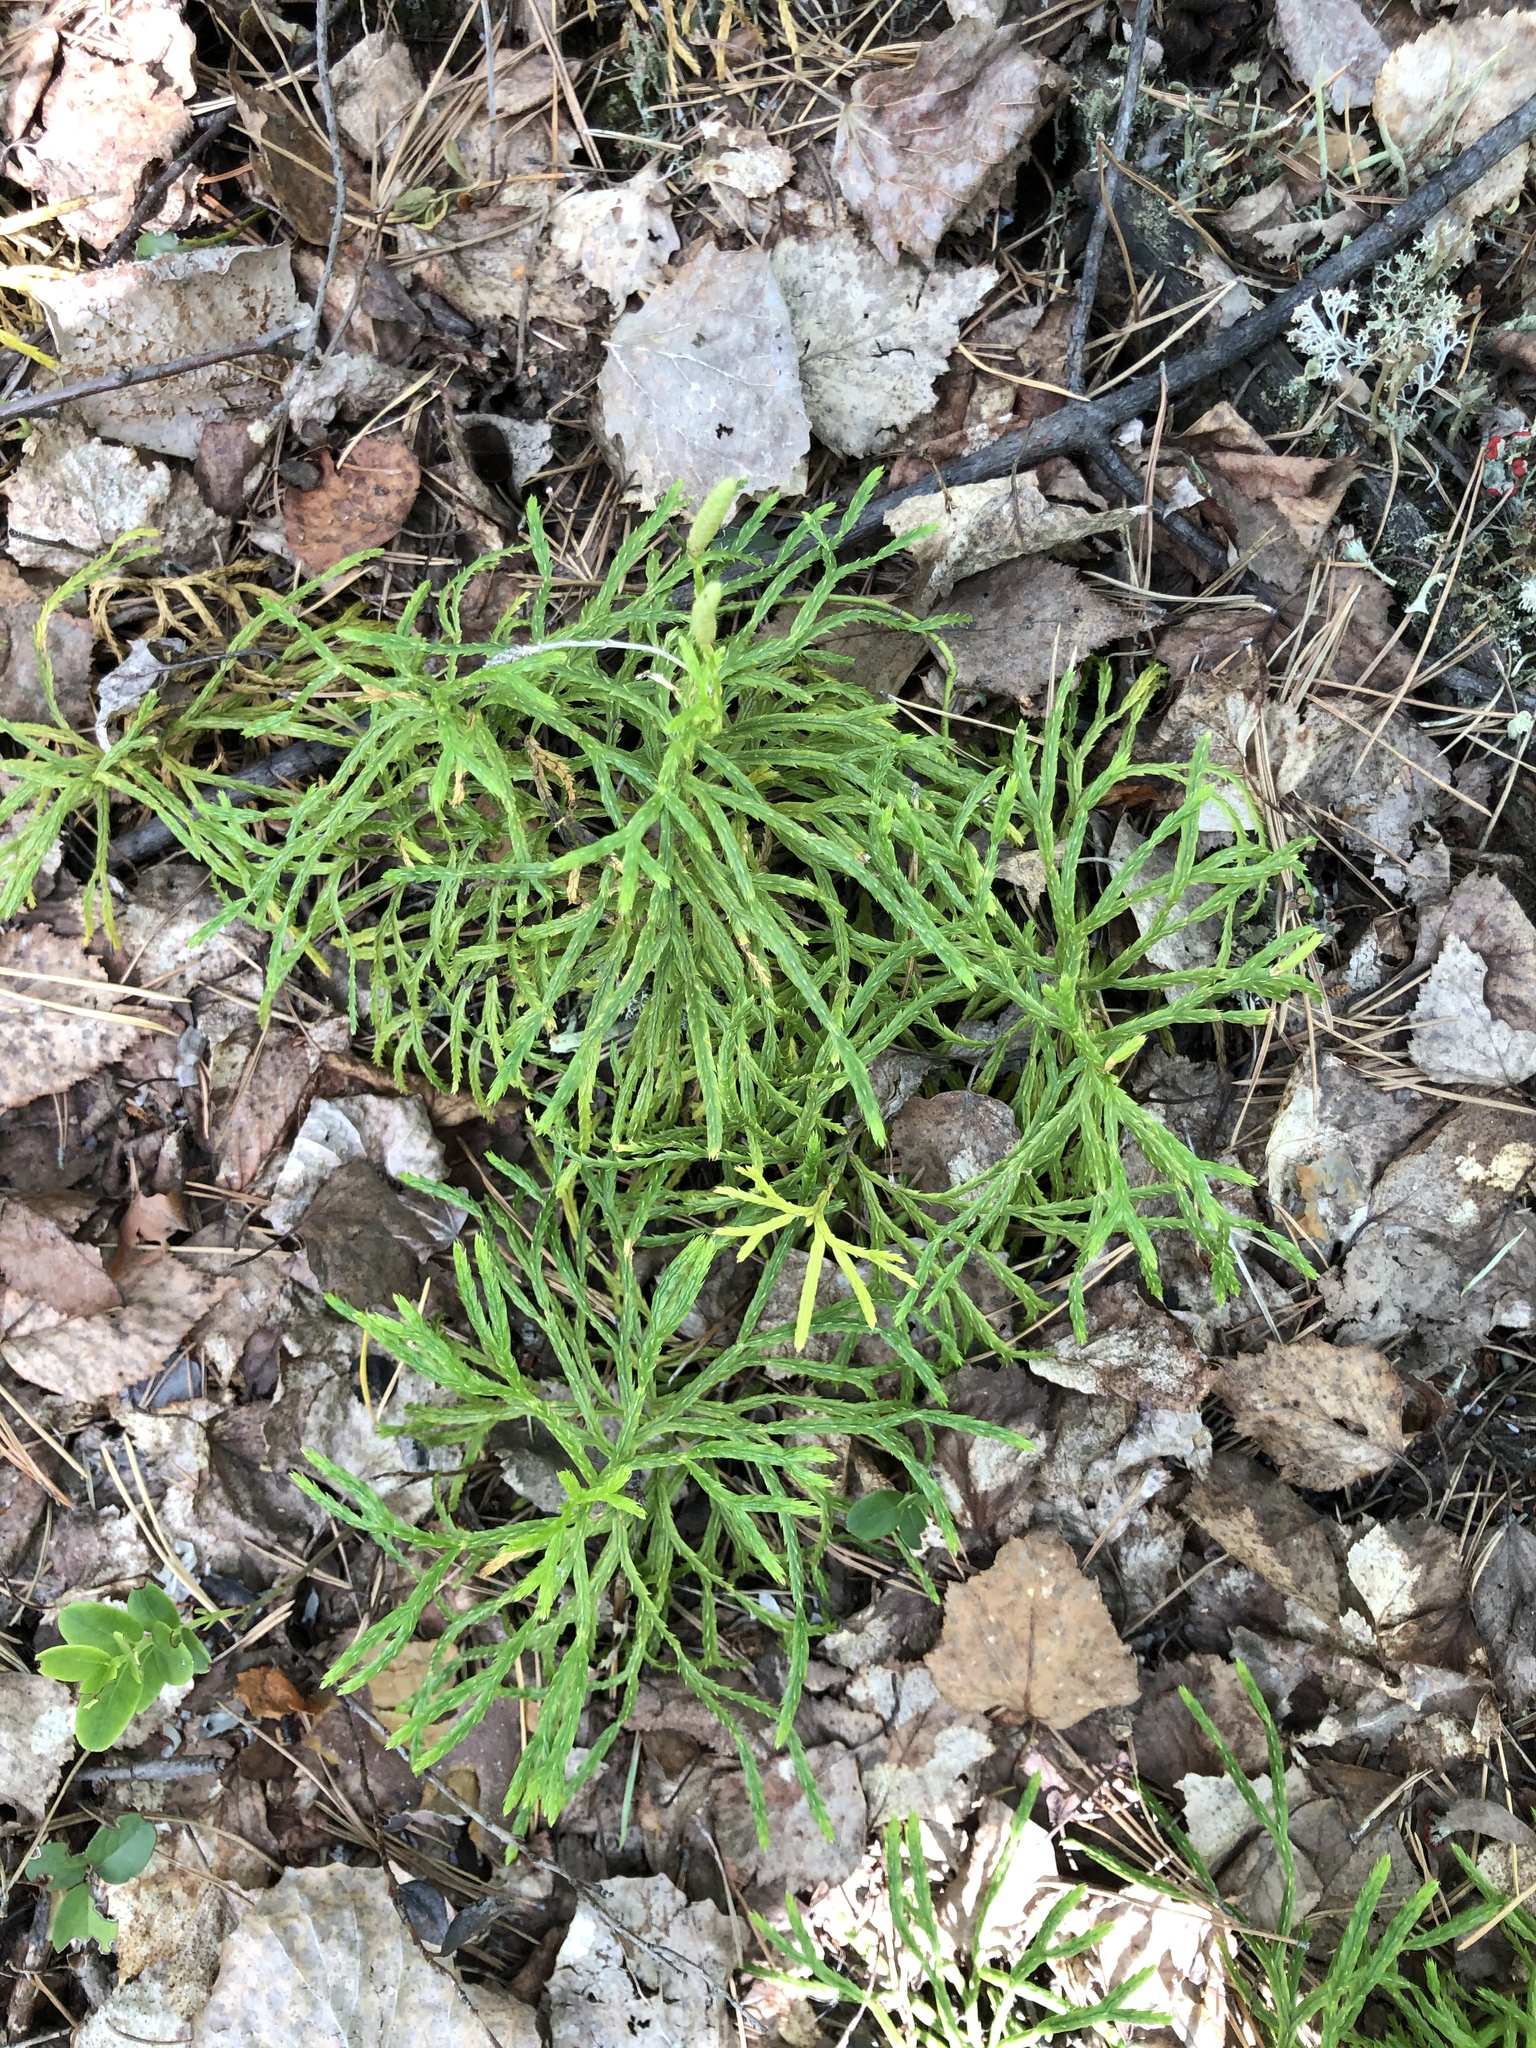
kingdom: Plantae
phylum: Tracheophyta
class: Lycopodiopsida
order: Lycopodiales
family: Lycopodiaceae
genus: Diphasiastrum
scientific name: Diphasiastrum complanatum
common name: Northern running-pine
